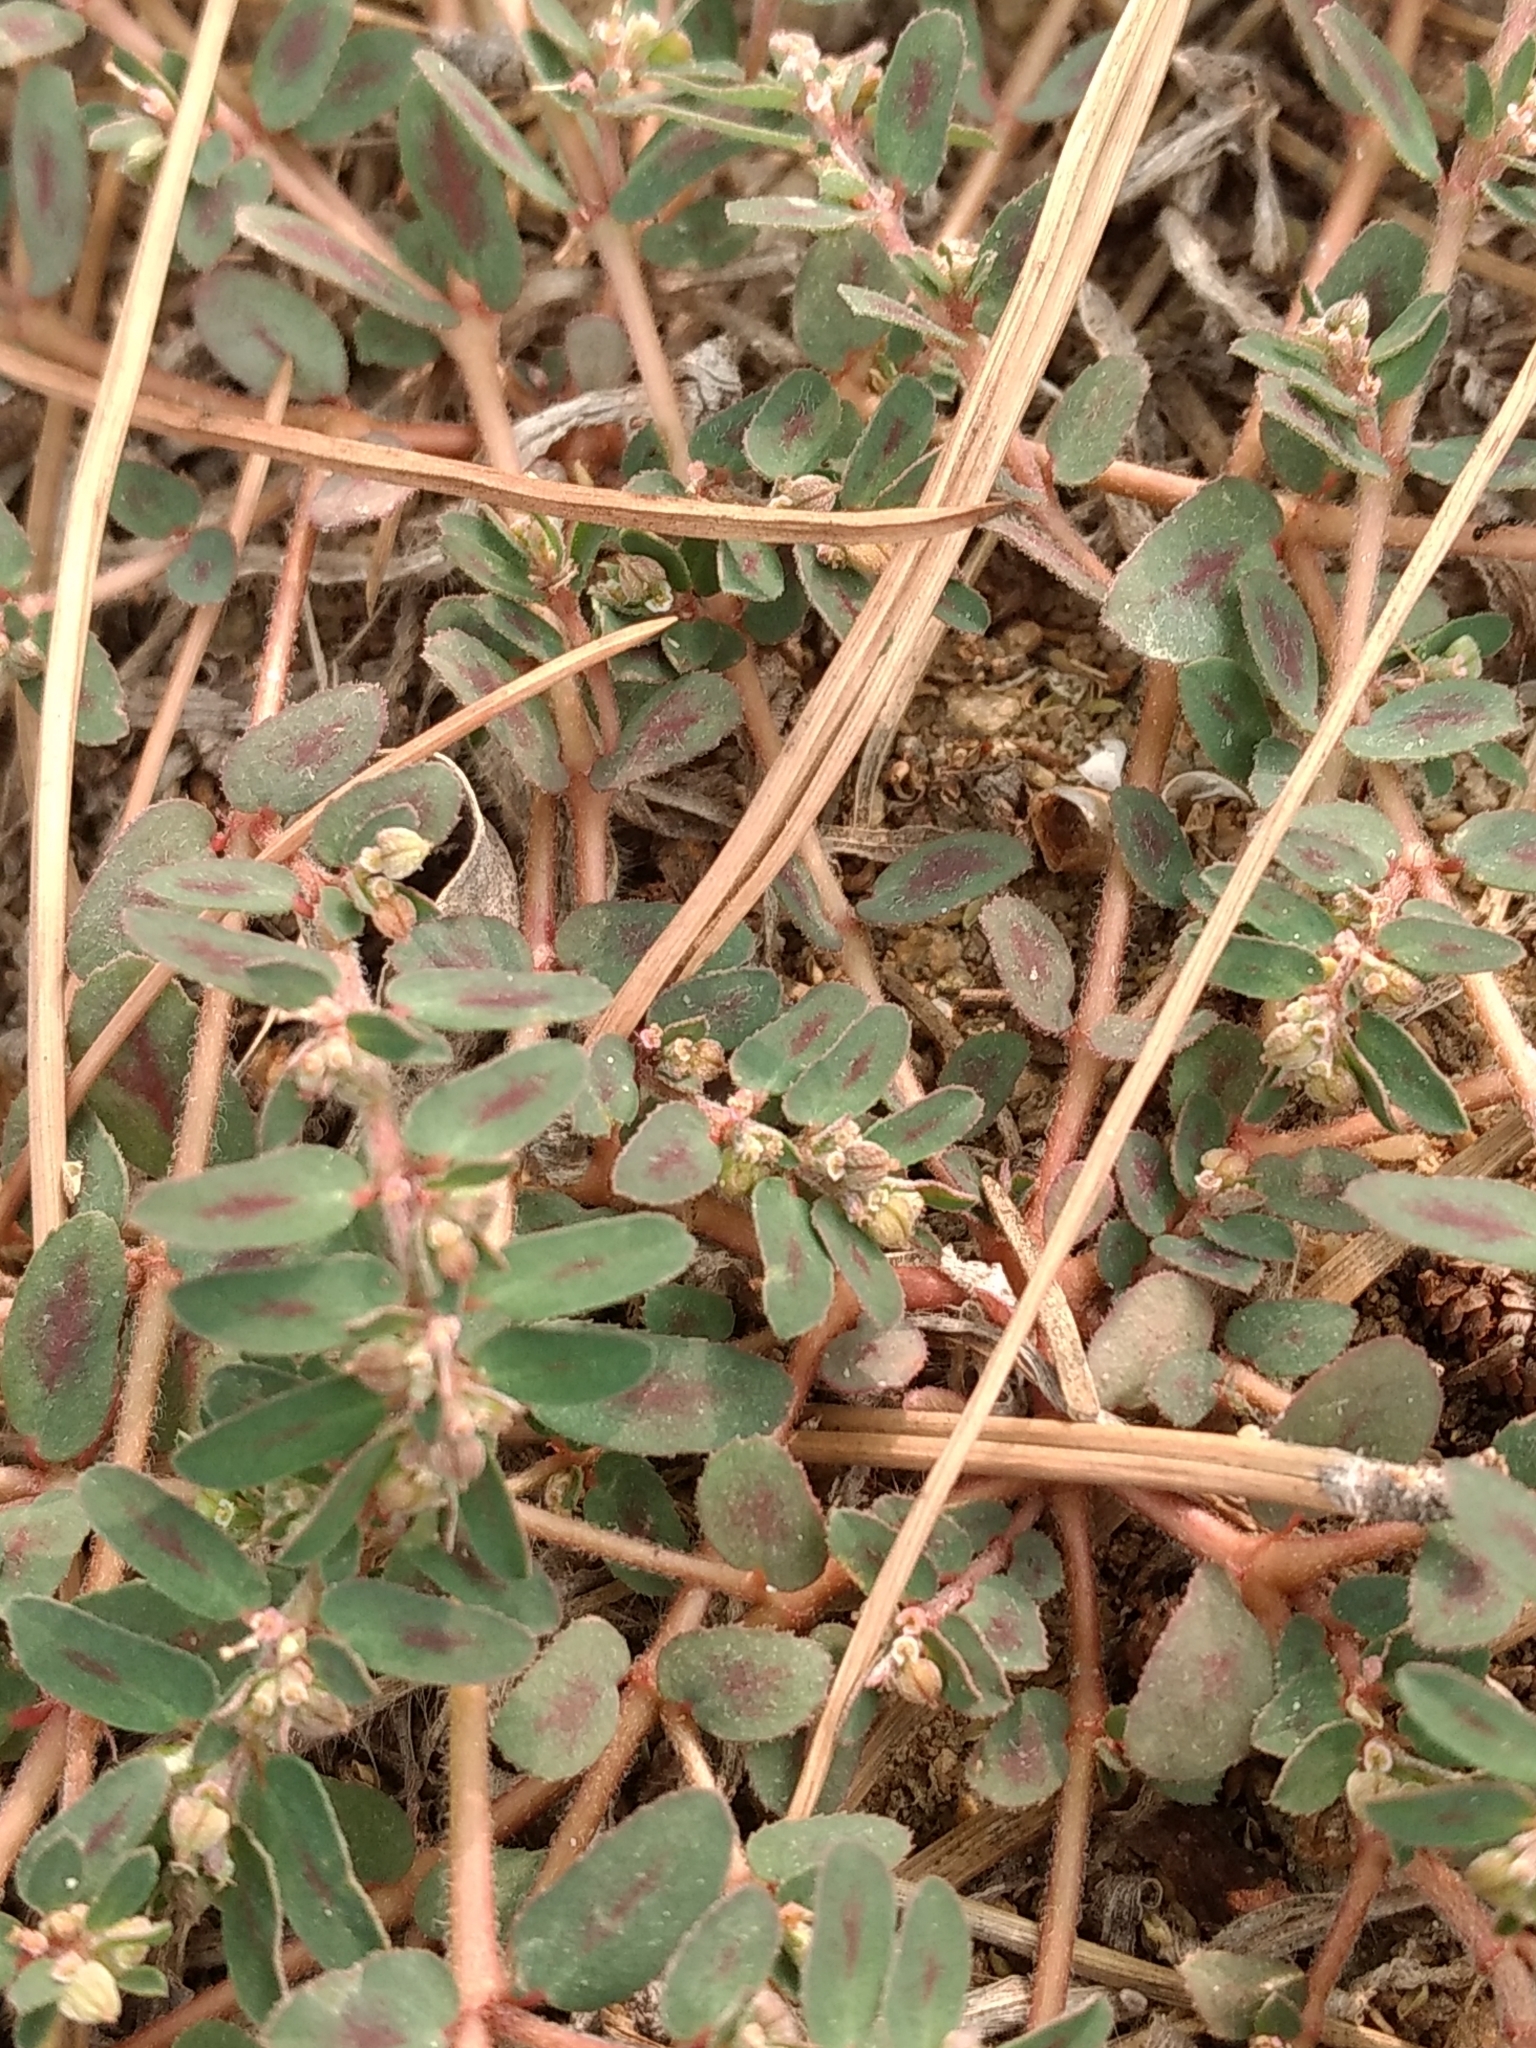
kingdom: Plantae
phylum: Tracheophyta
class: Magnoliopsida
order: Malpighiales
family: Euphorbiaceae
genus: Euphorbia
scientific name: Euphorbia maculata
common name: Spotted spurge
